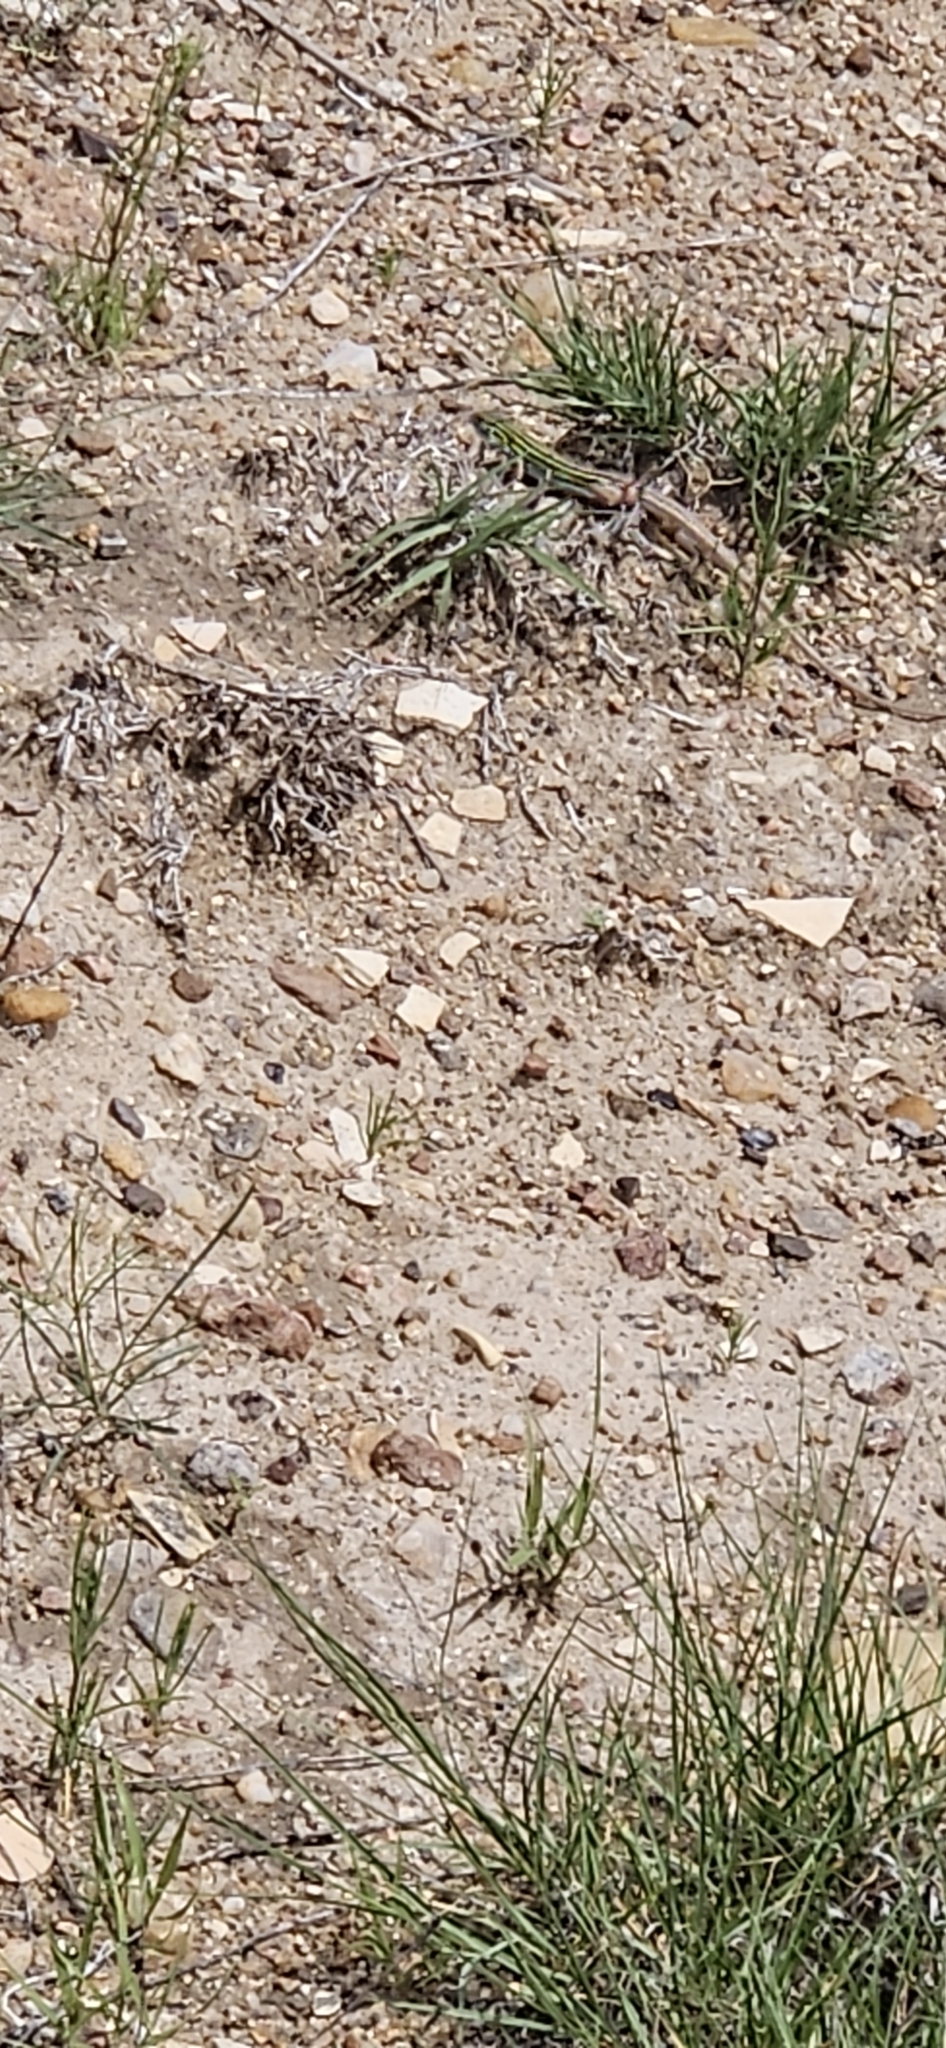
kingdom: Animalia
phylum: Chordata
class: Squamata
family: Teiidae
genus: Aspidoscelis
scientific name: Aspidoscelis sexlineatus
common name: Six-lined racerunner
